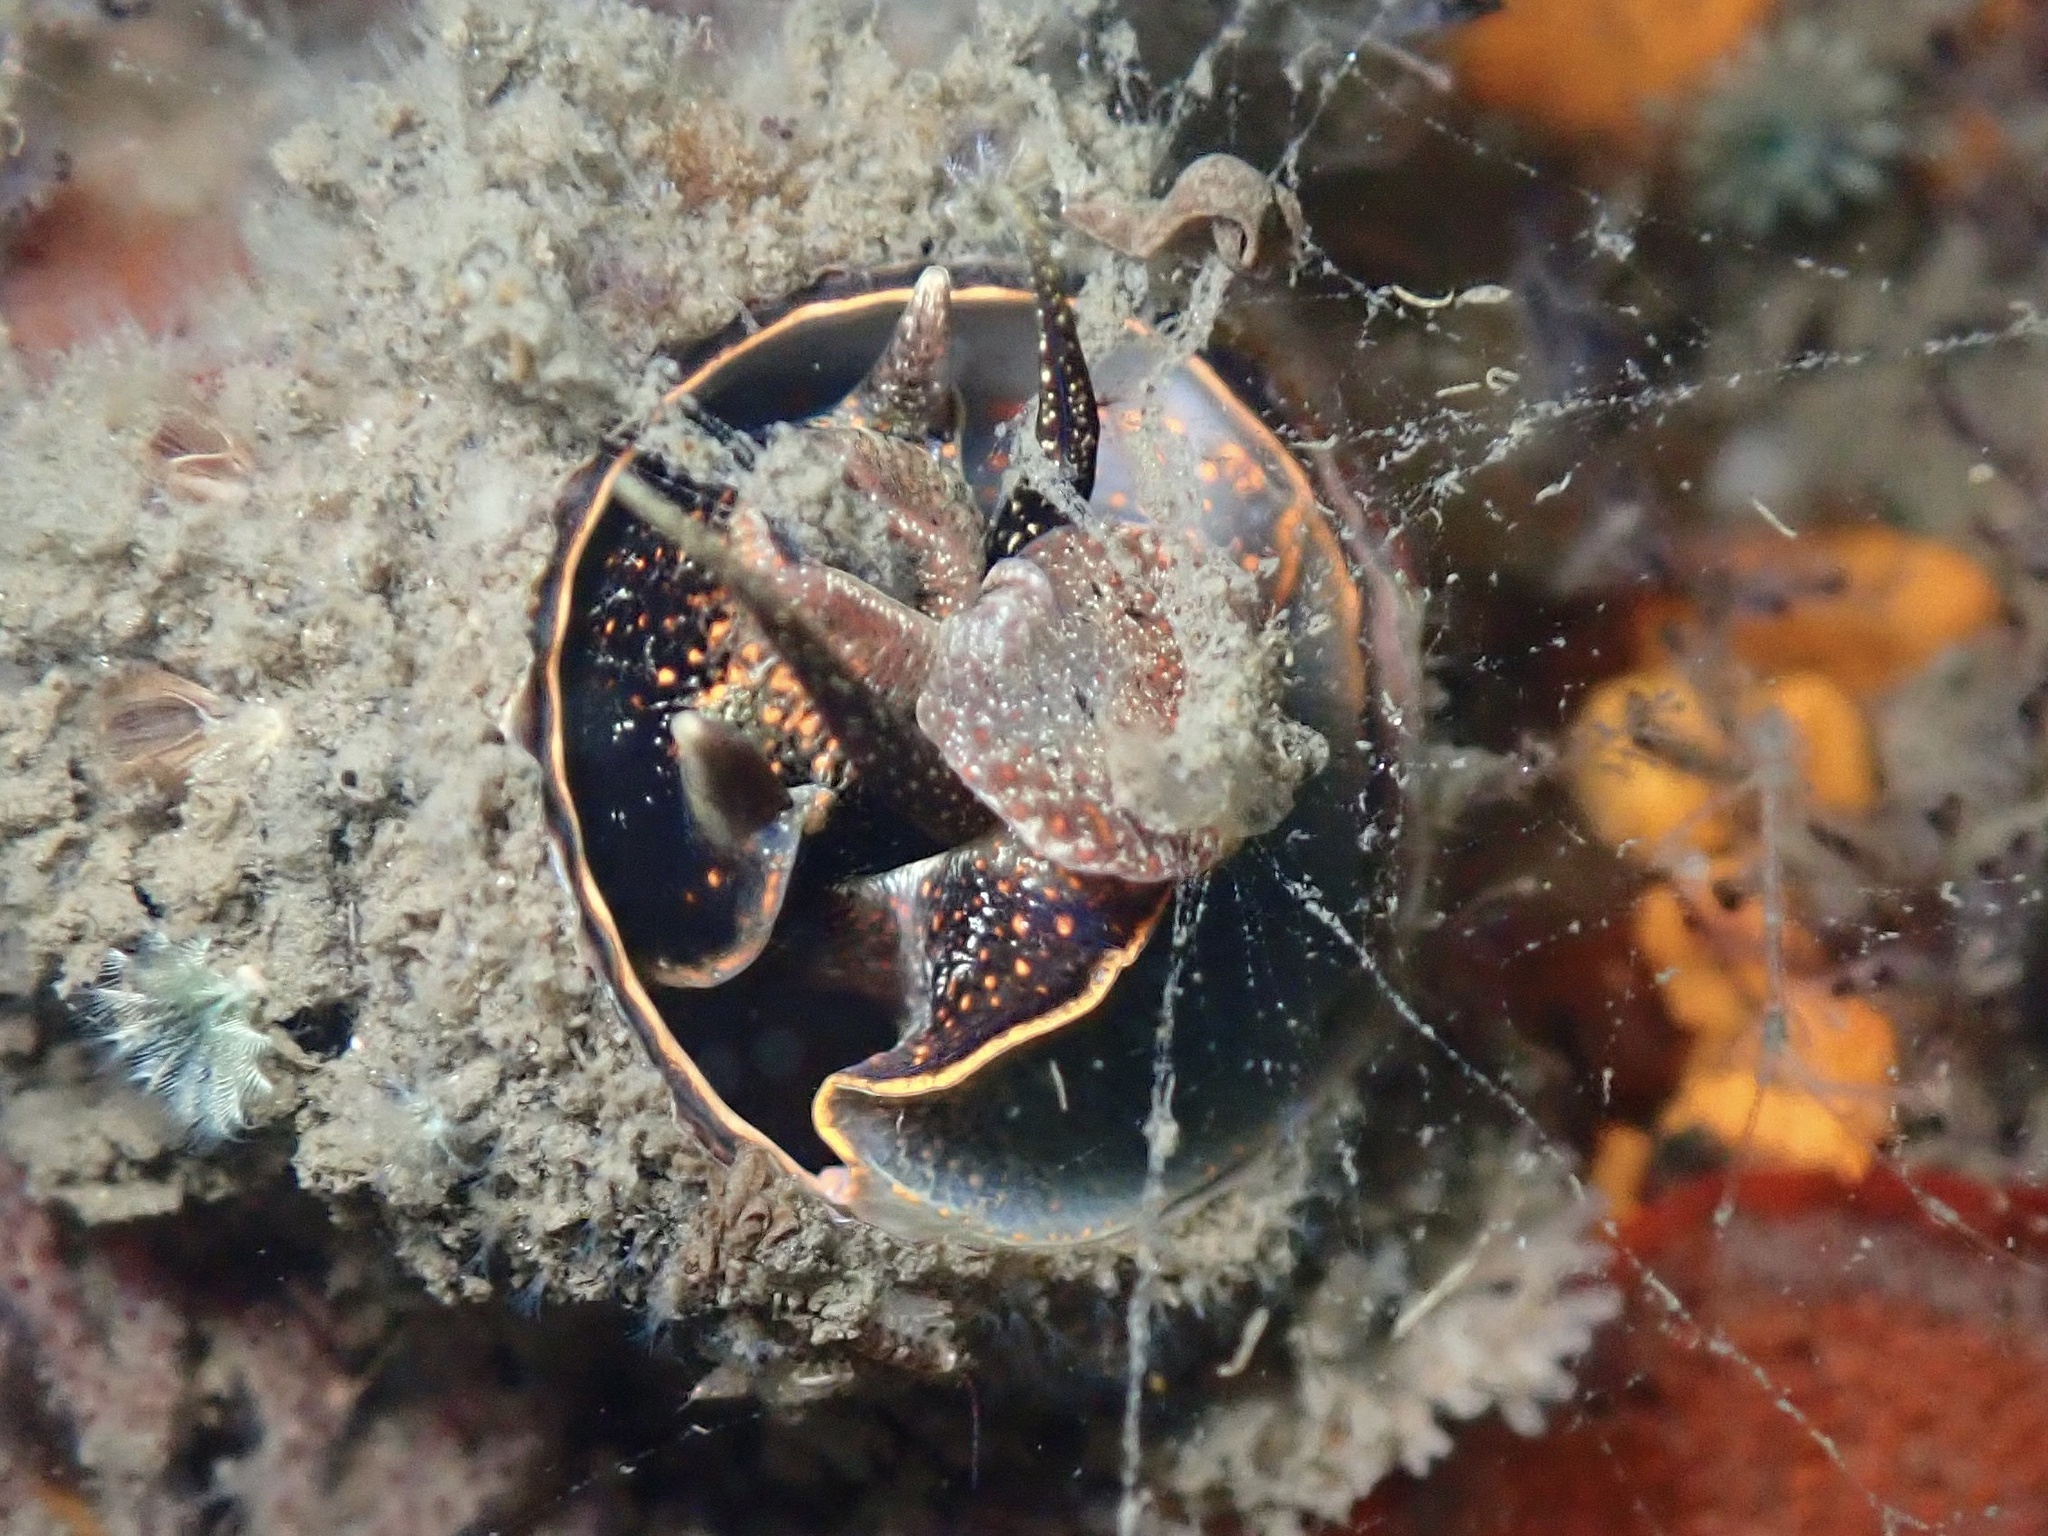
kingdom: Animalia
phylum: Mollusca
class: Gastropoda
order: Littorinimorpha
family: Vermetidae
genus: Thylacodes
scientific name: Thylacodes squamigerus
